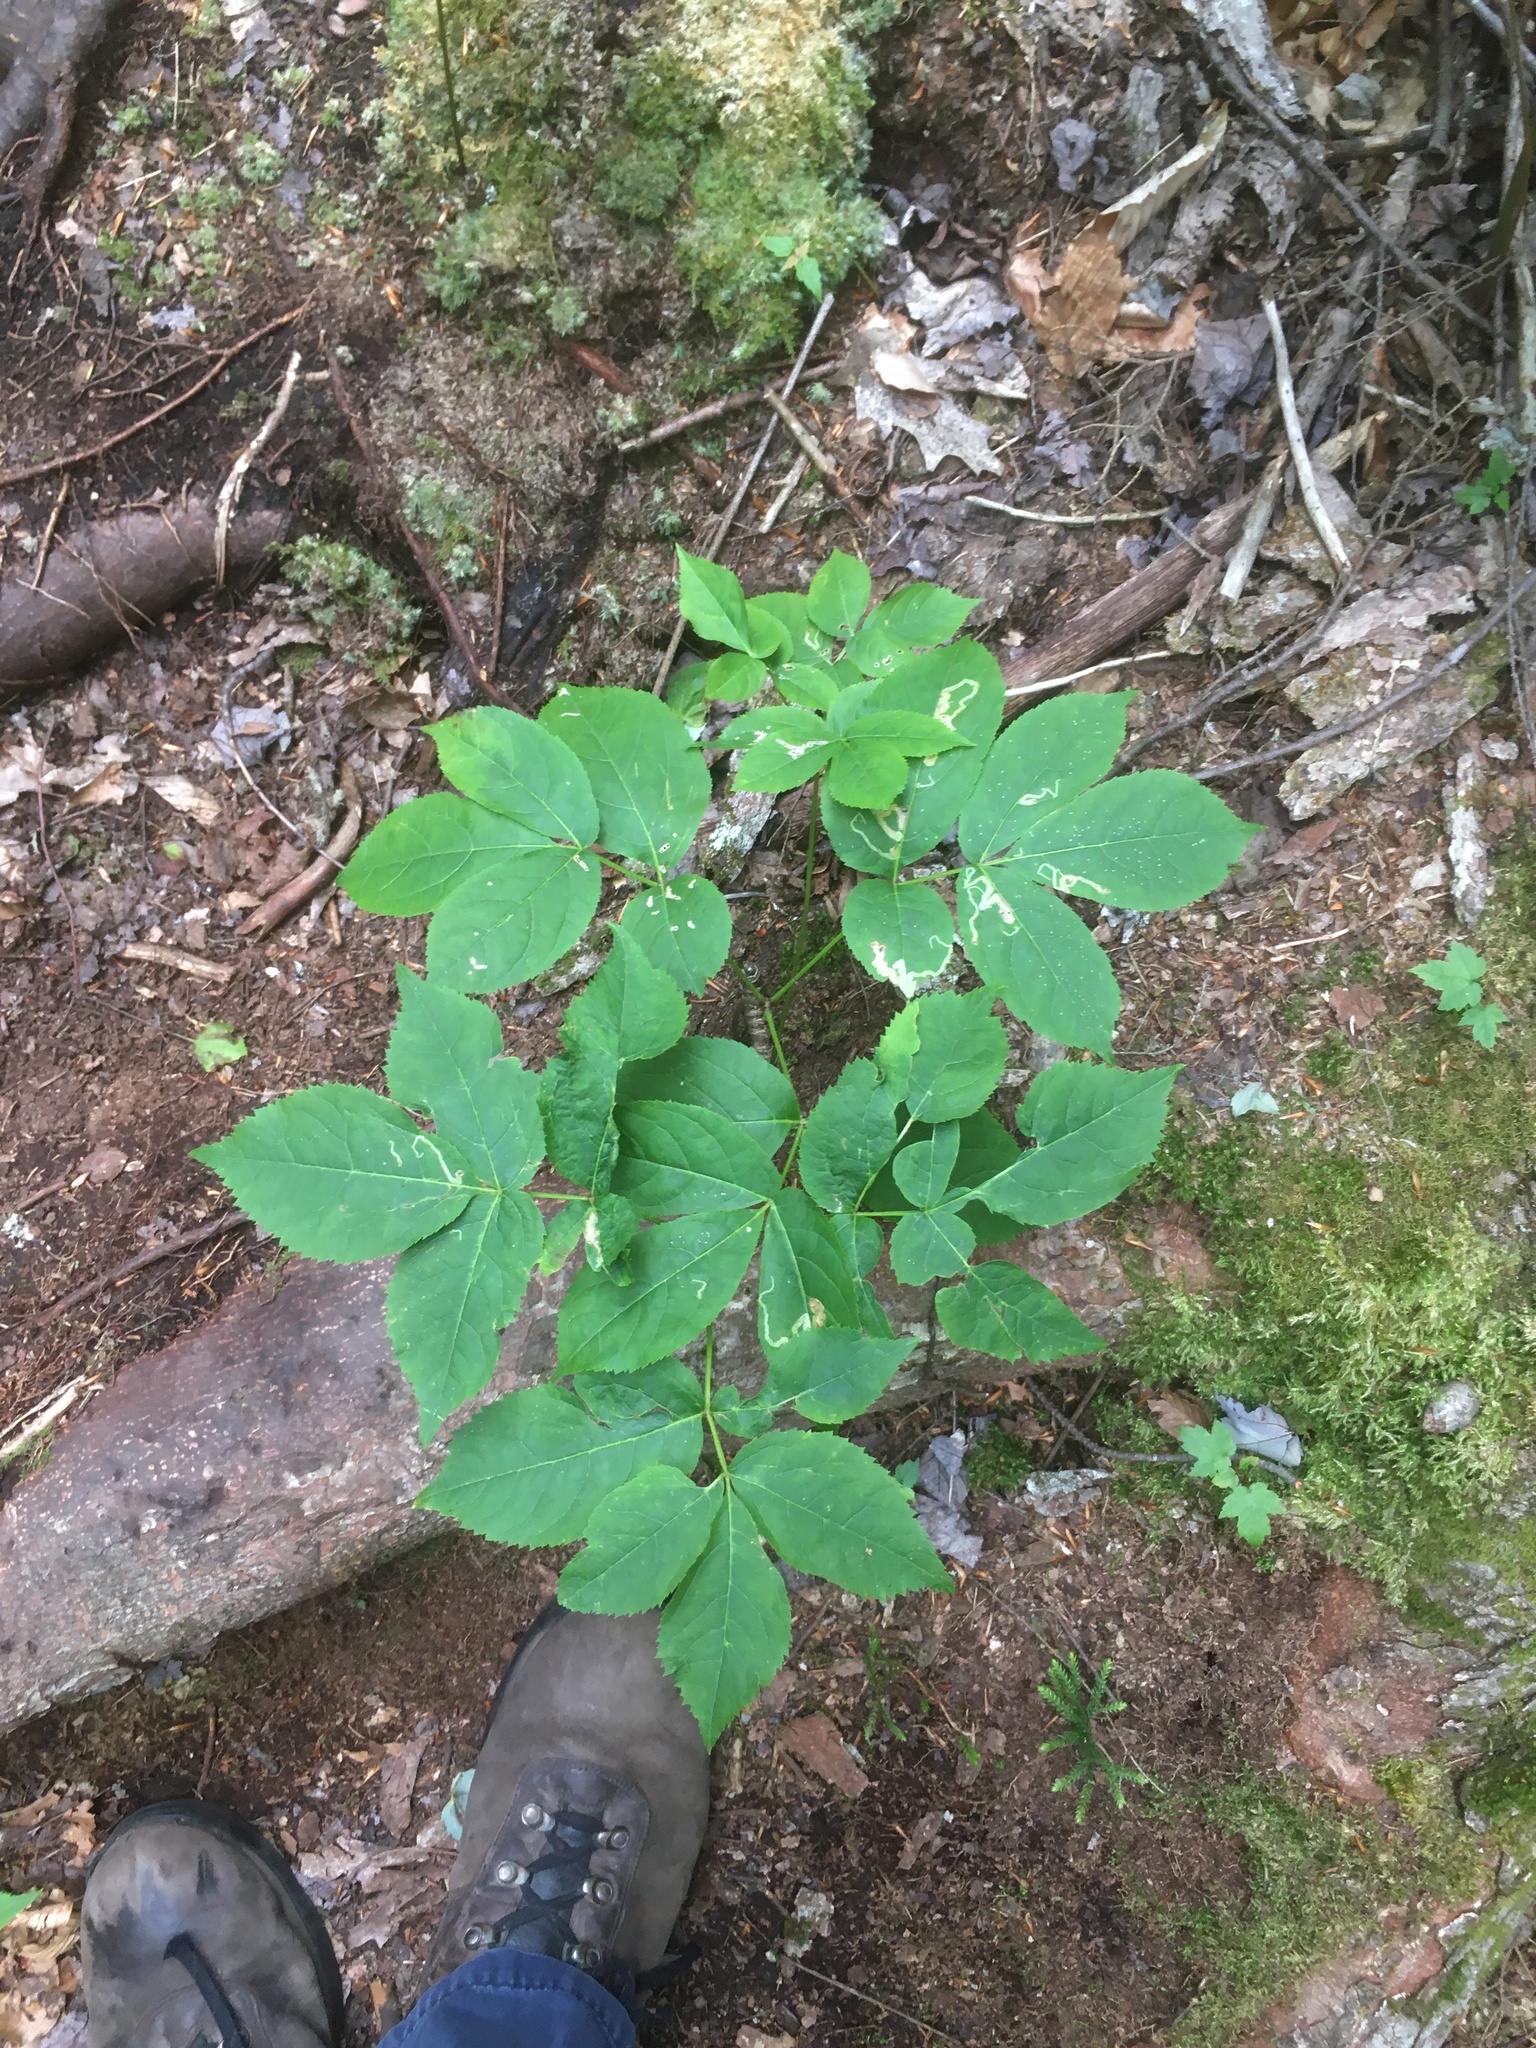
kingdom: Plantae
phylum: Tracheophyta
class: Magnoliopsida
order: Apiales
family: Araliaceae
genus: Aralia
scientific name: Aralia nudicaulis
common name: Wild sarsaparilla
